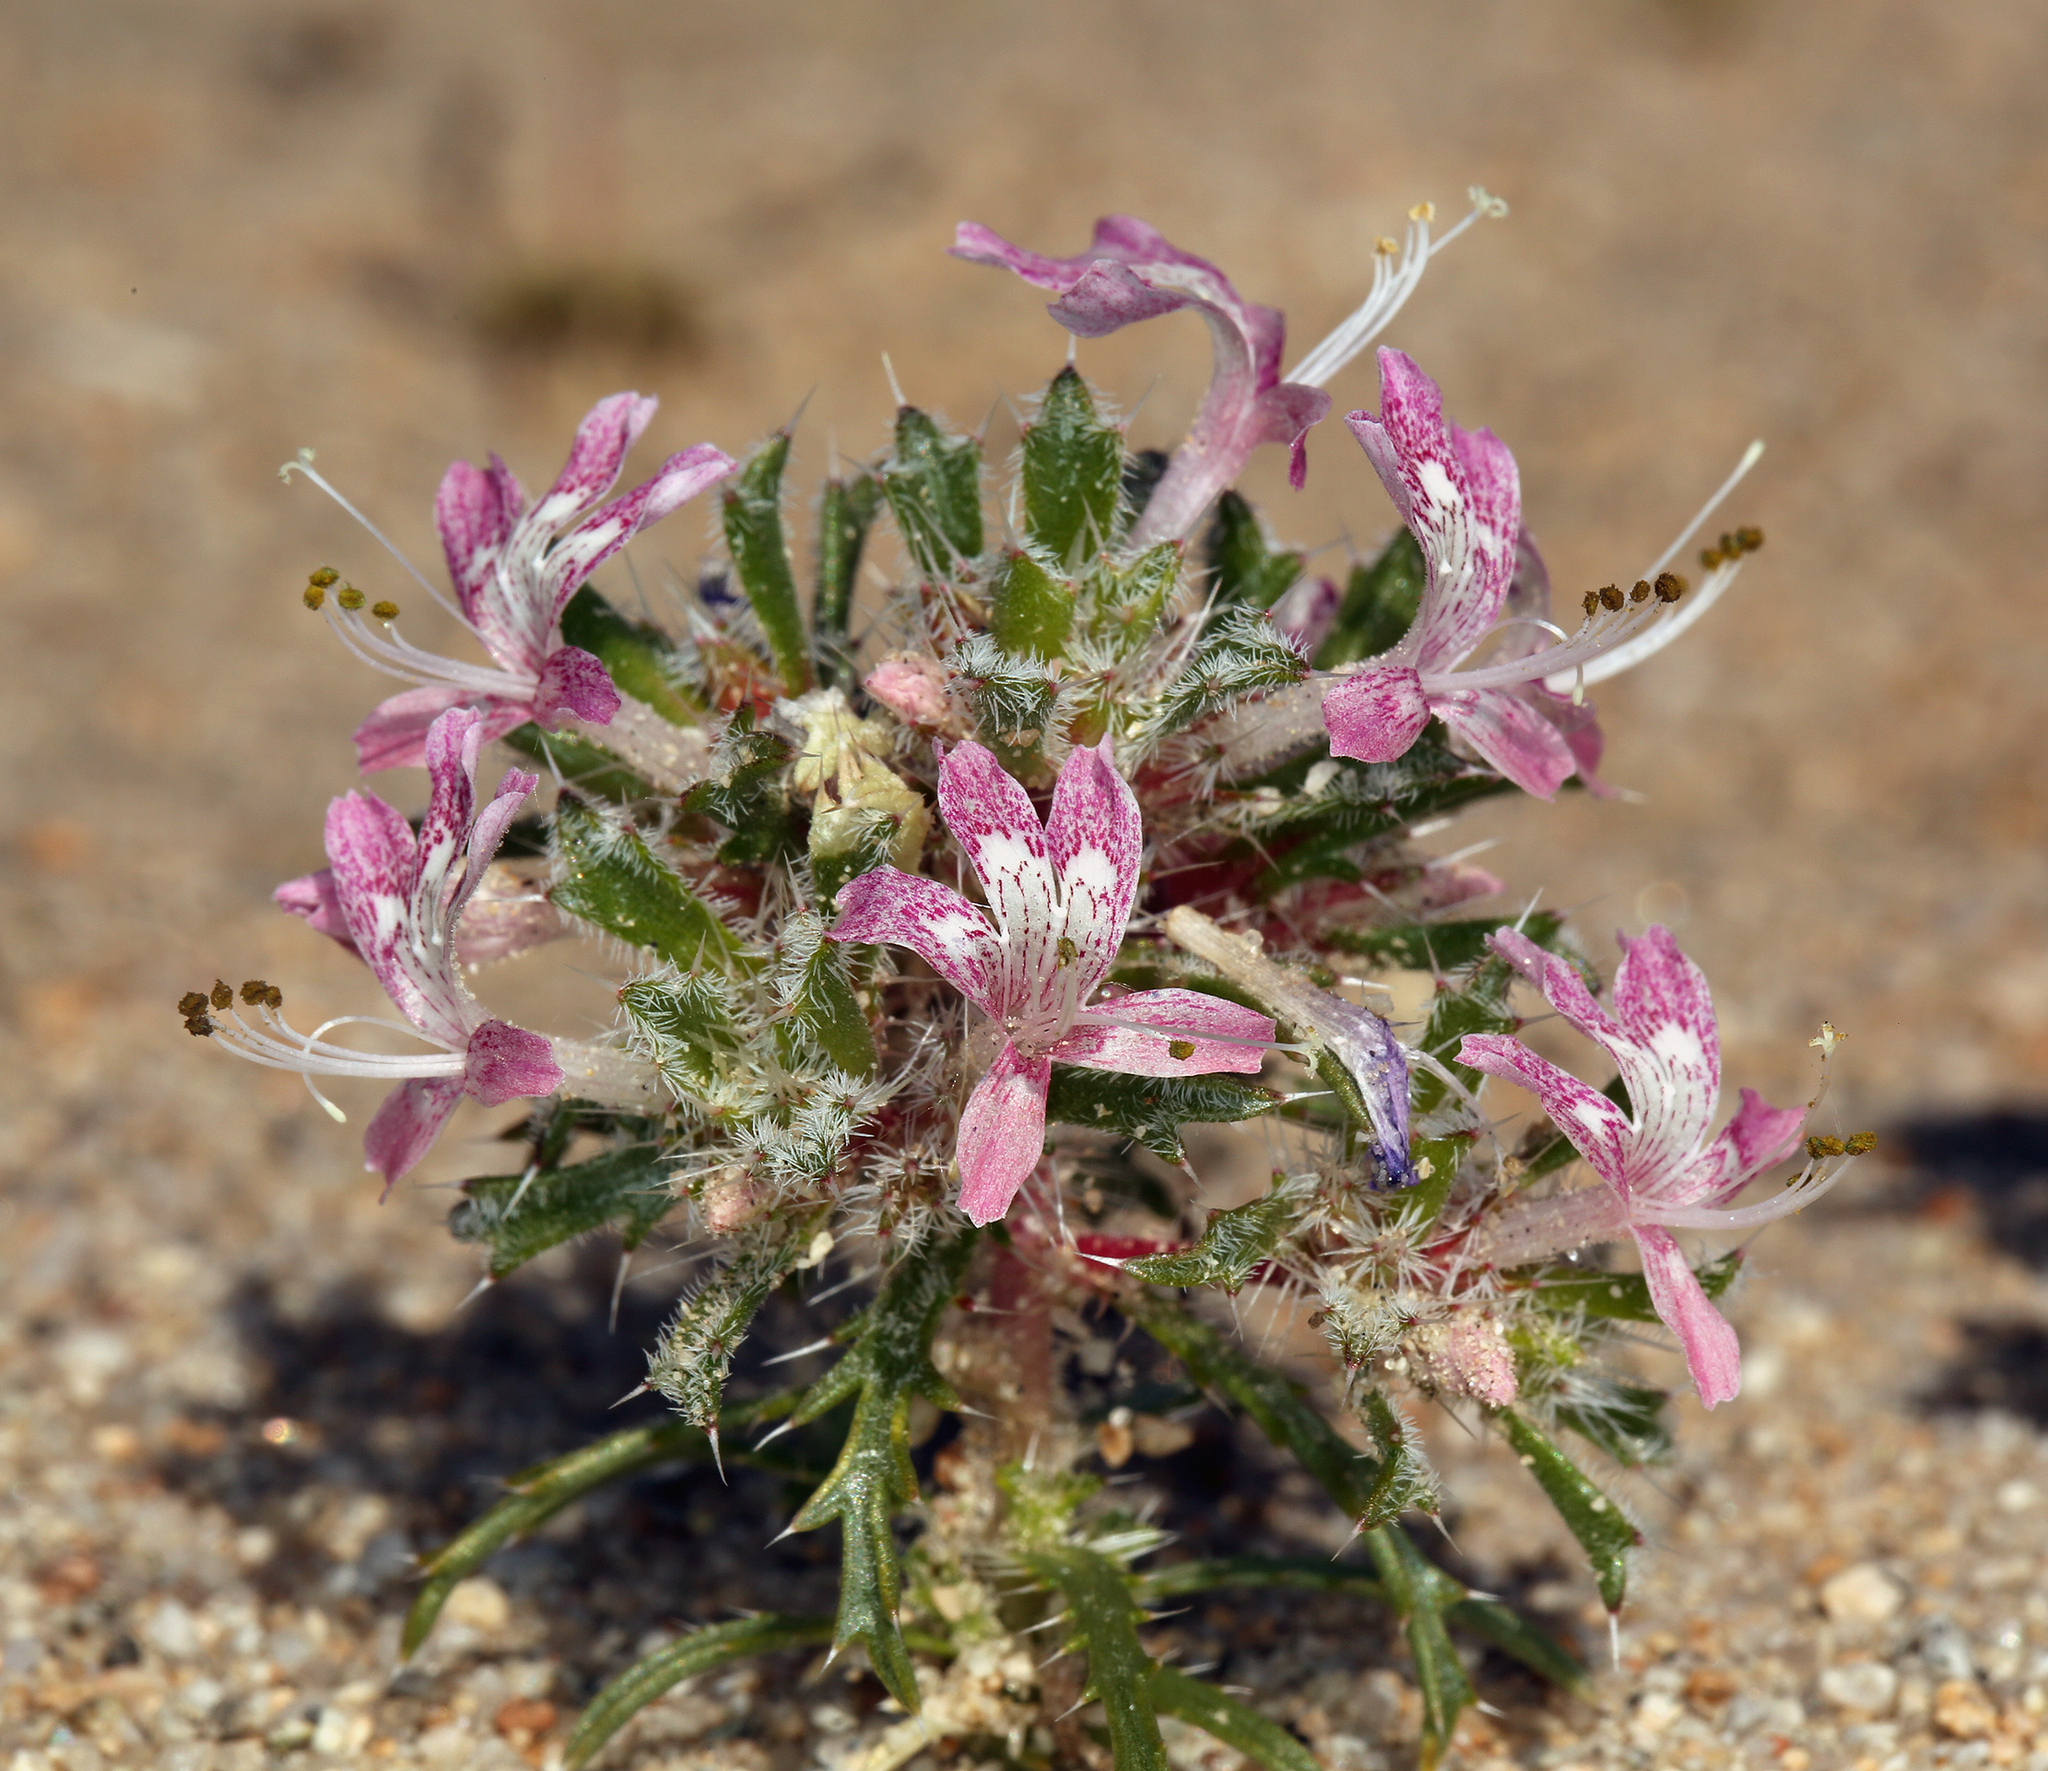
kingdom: Plantae
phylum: Tracheophyta
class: Magnoliopsida
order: Ericales
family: Polemoniaceae
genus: Loeseliastrum
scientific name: Loeseliastrum matthewsii
